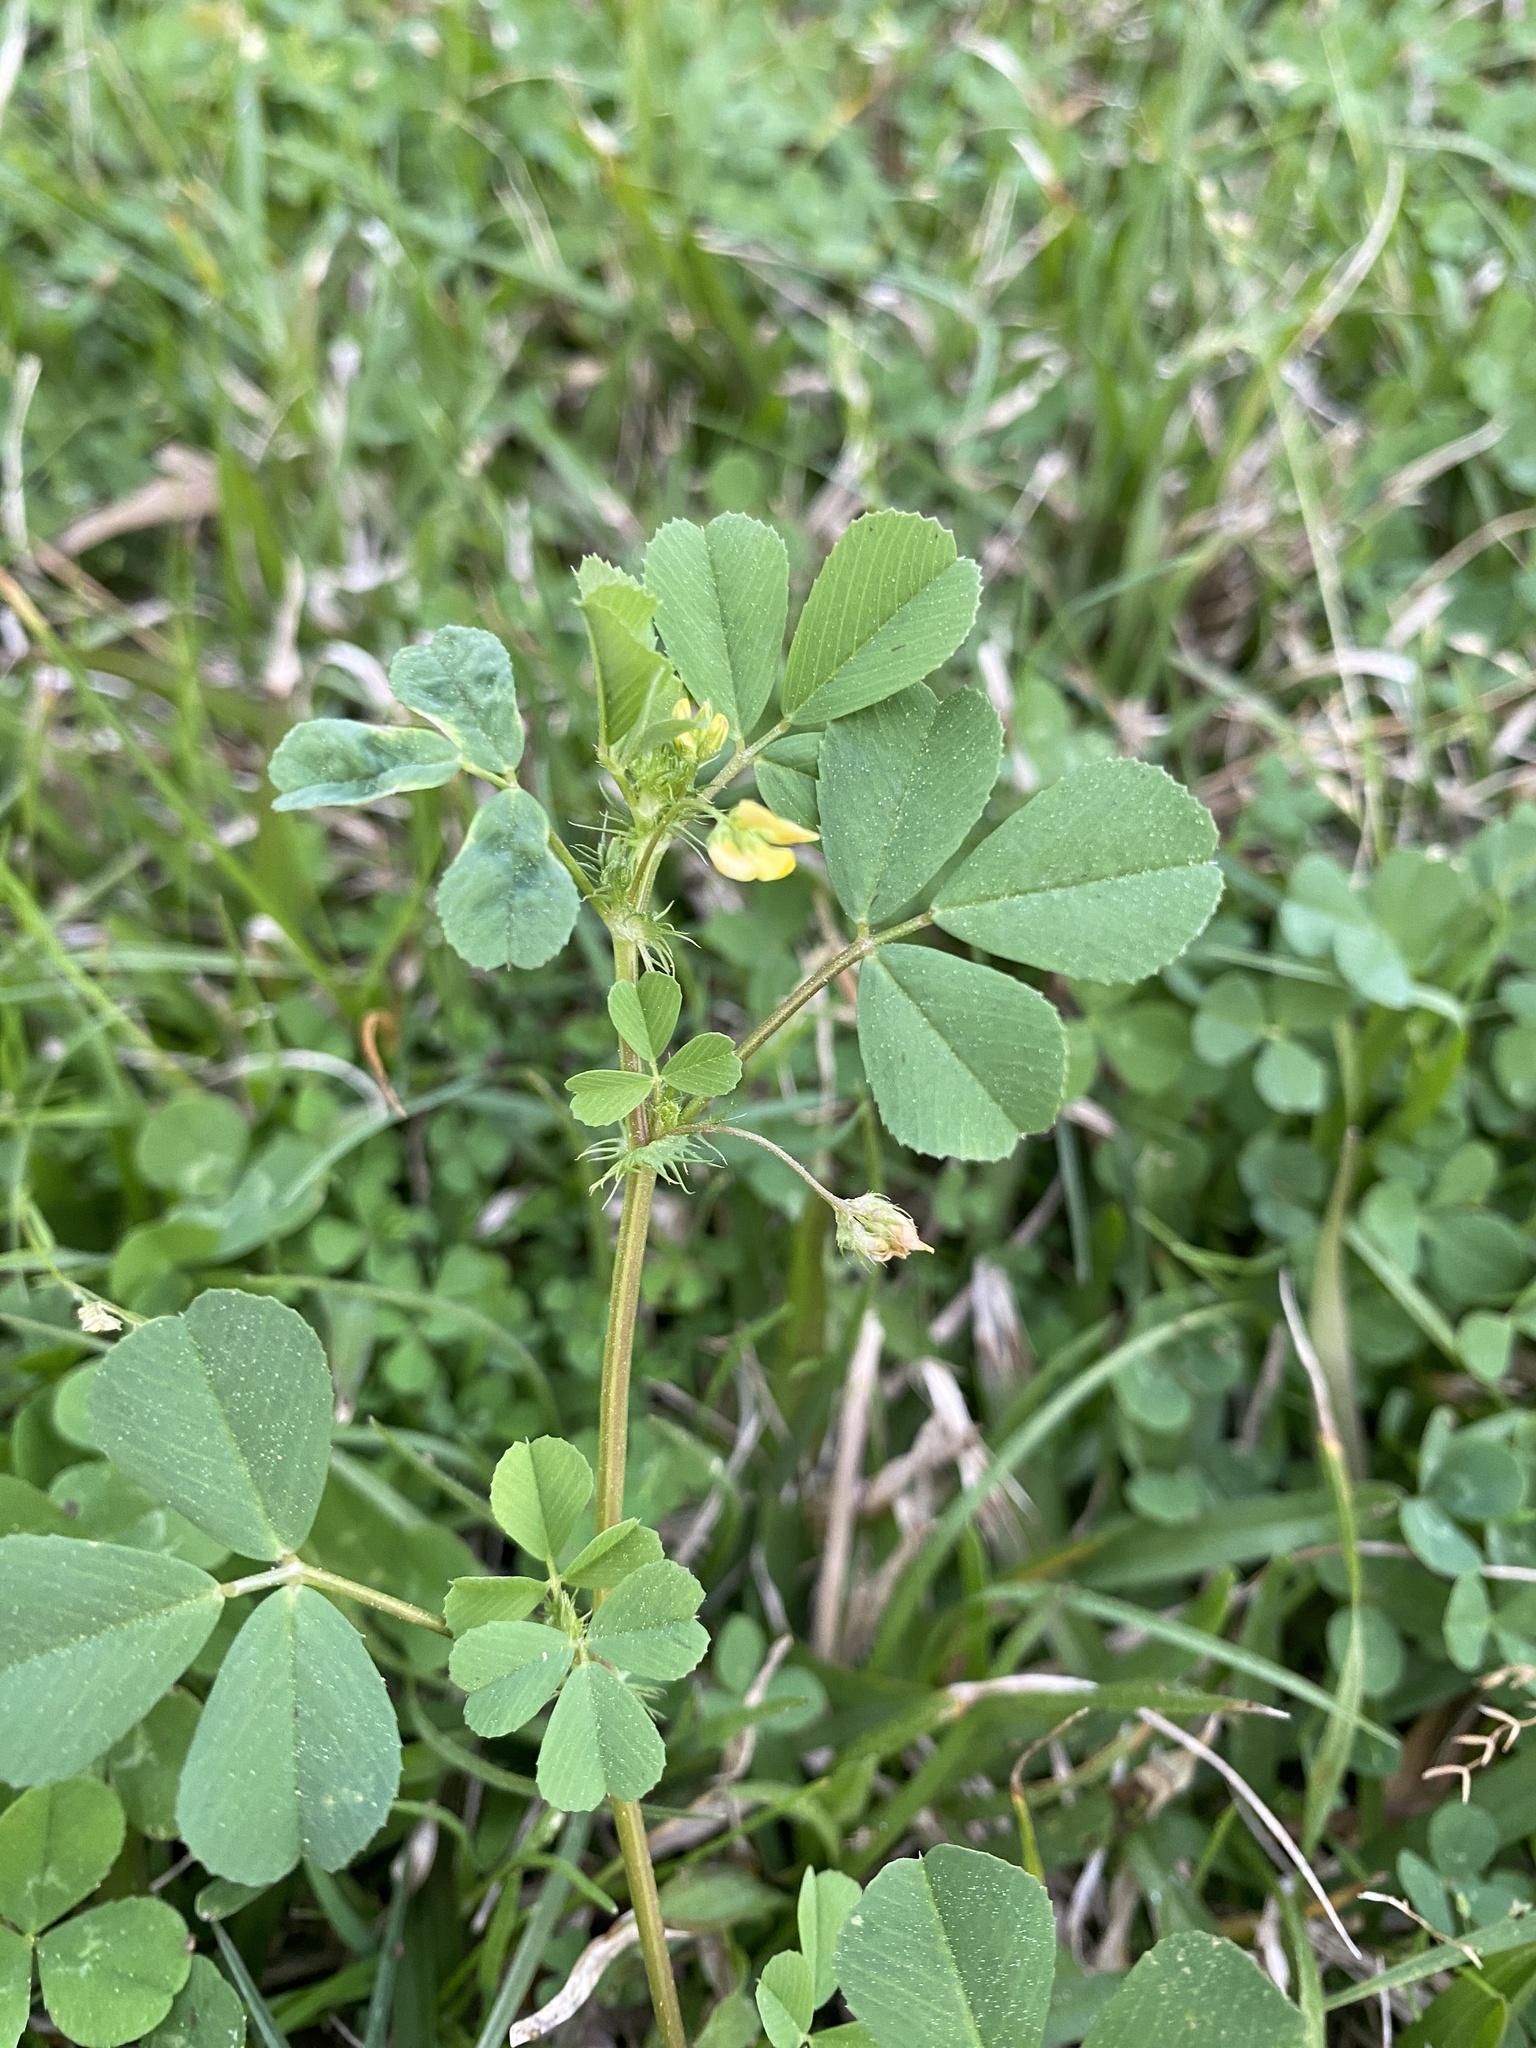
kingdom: Plantae
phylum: Tracheophyta
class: Magnoliopsida
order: Fabales
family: Fabaceae
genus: Medicago
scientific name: Medicago polymorpha
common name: Burclover
